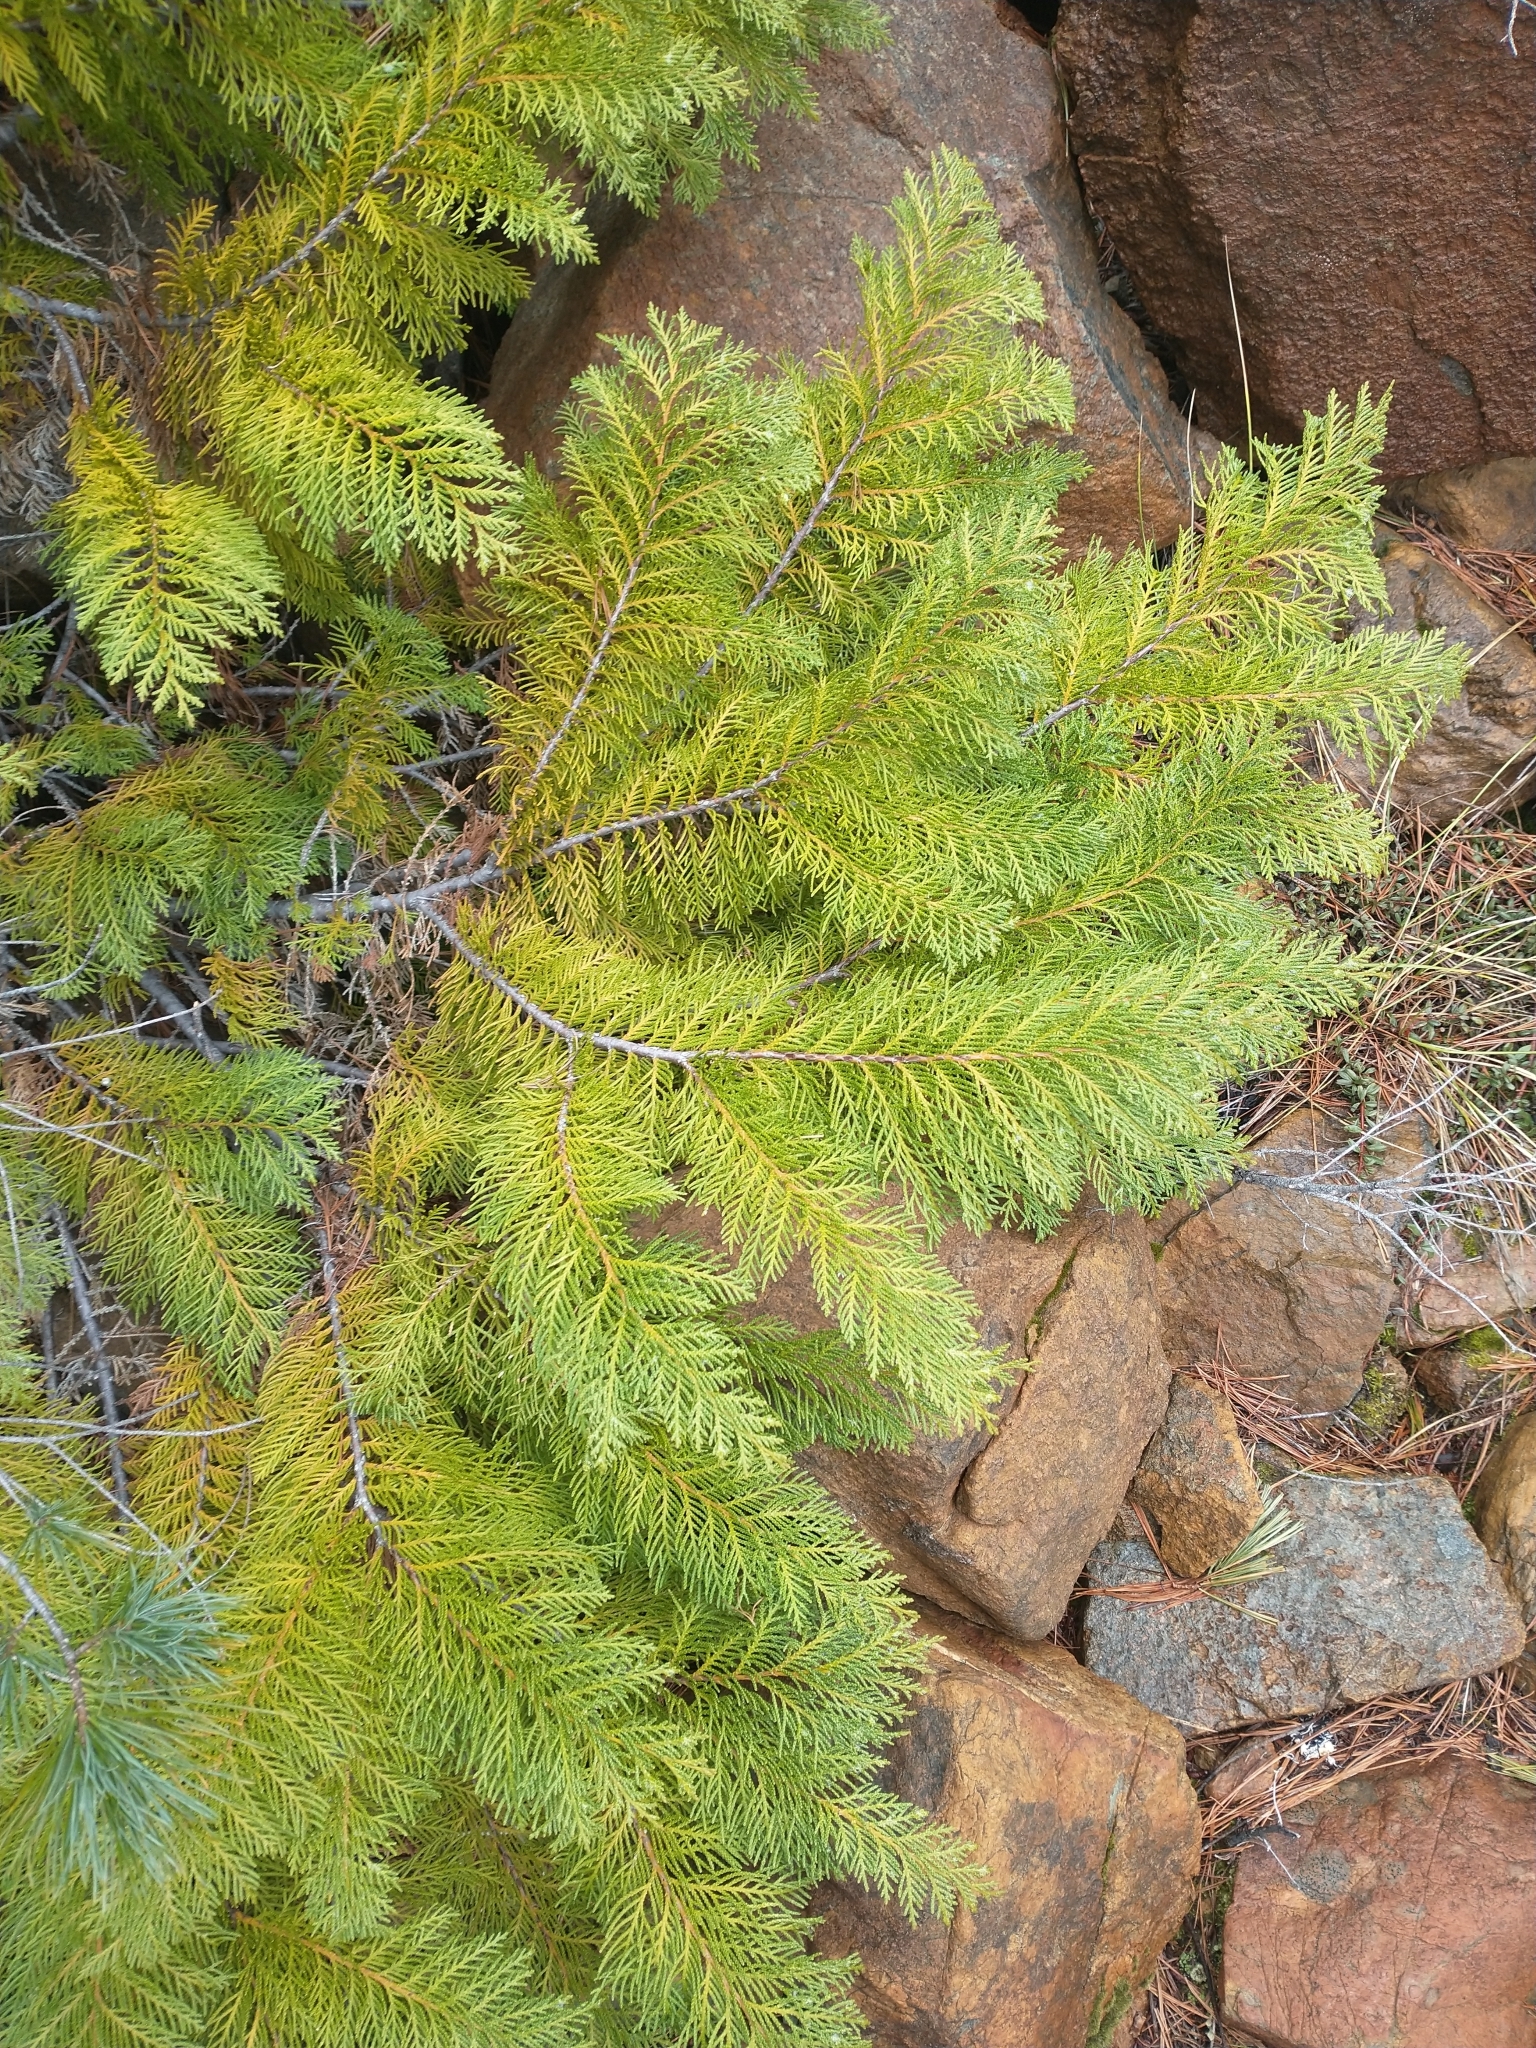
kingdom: Plantae
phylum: Tracheophyta
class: Pinopsida
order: Pinales
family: Cupressaceae
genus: Chamaecyparis
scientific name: Chamaecyparis lawsoniana
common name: Lawson's cypress
